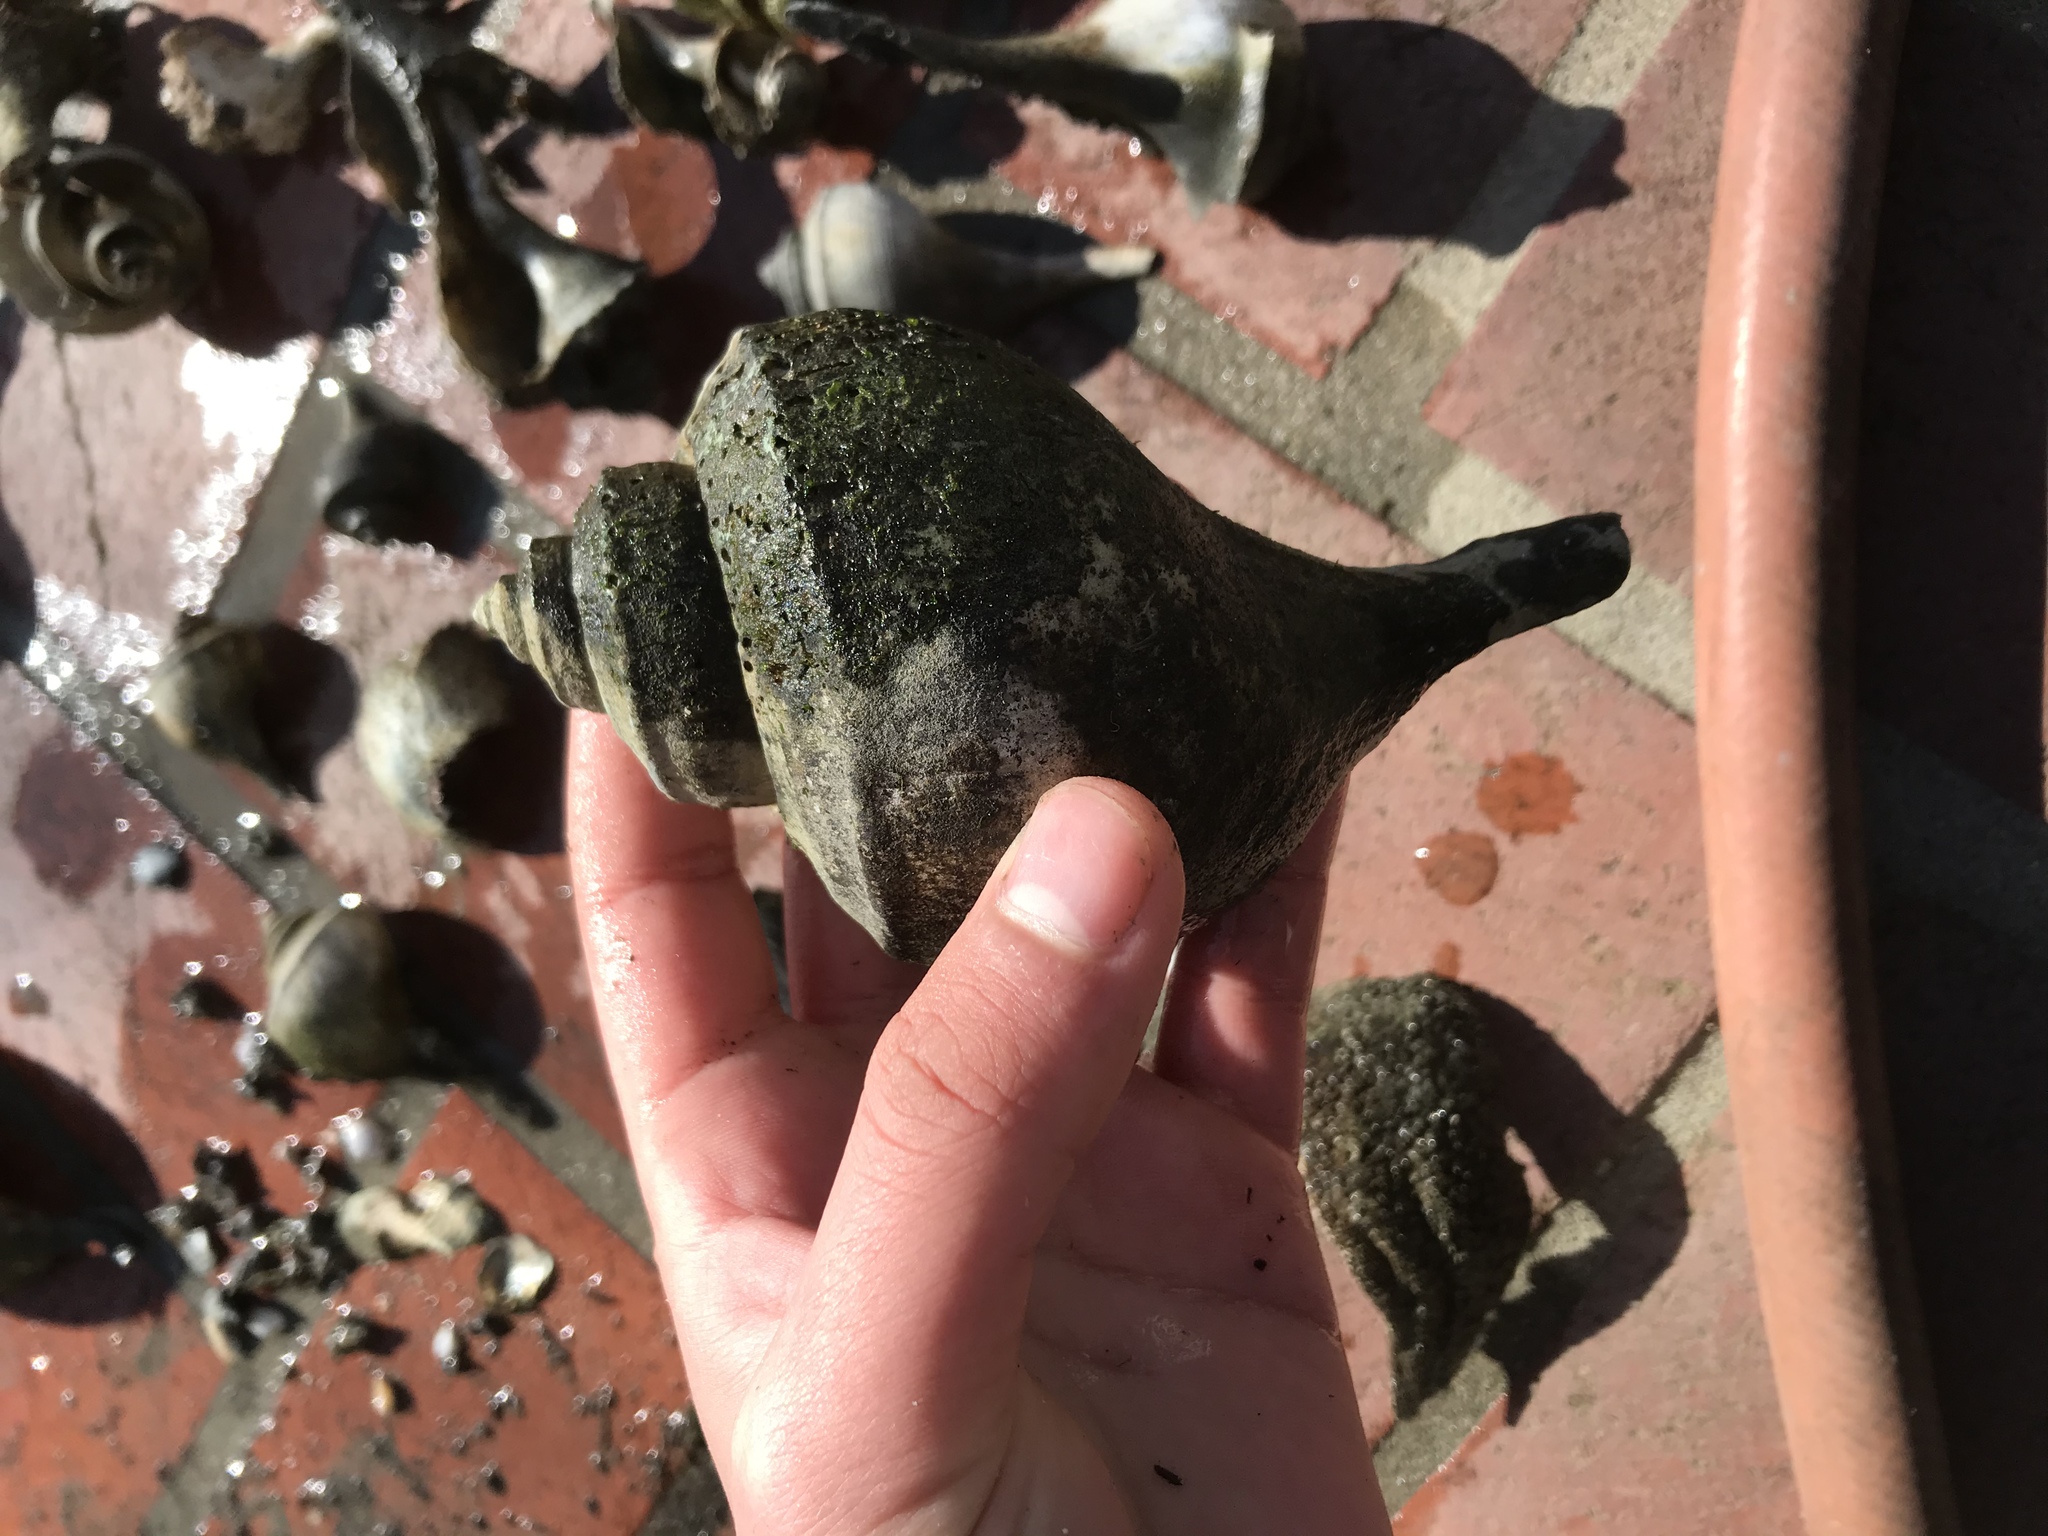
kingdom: Animalia
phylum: Mollusca
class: Gastropoda
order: Neogastropoda
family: Busyconidae
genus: Busycotypus
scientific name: Busycotypus canaliculatus
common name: Channeled whelk
